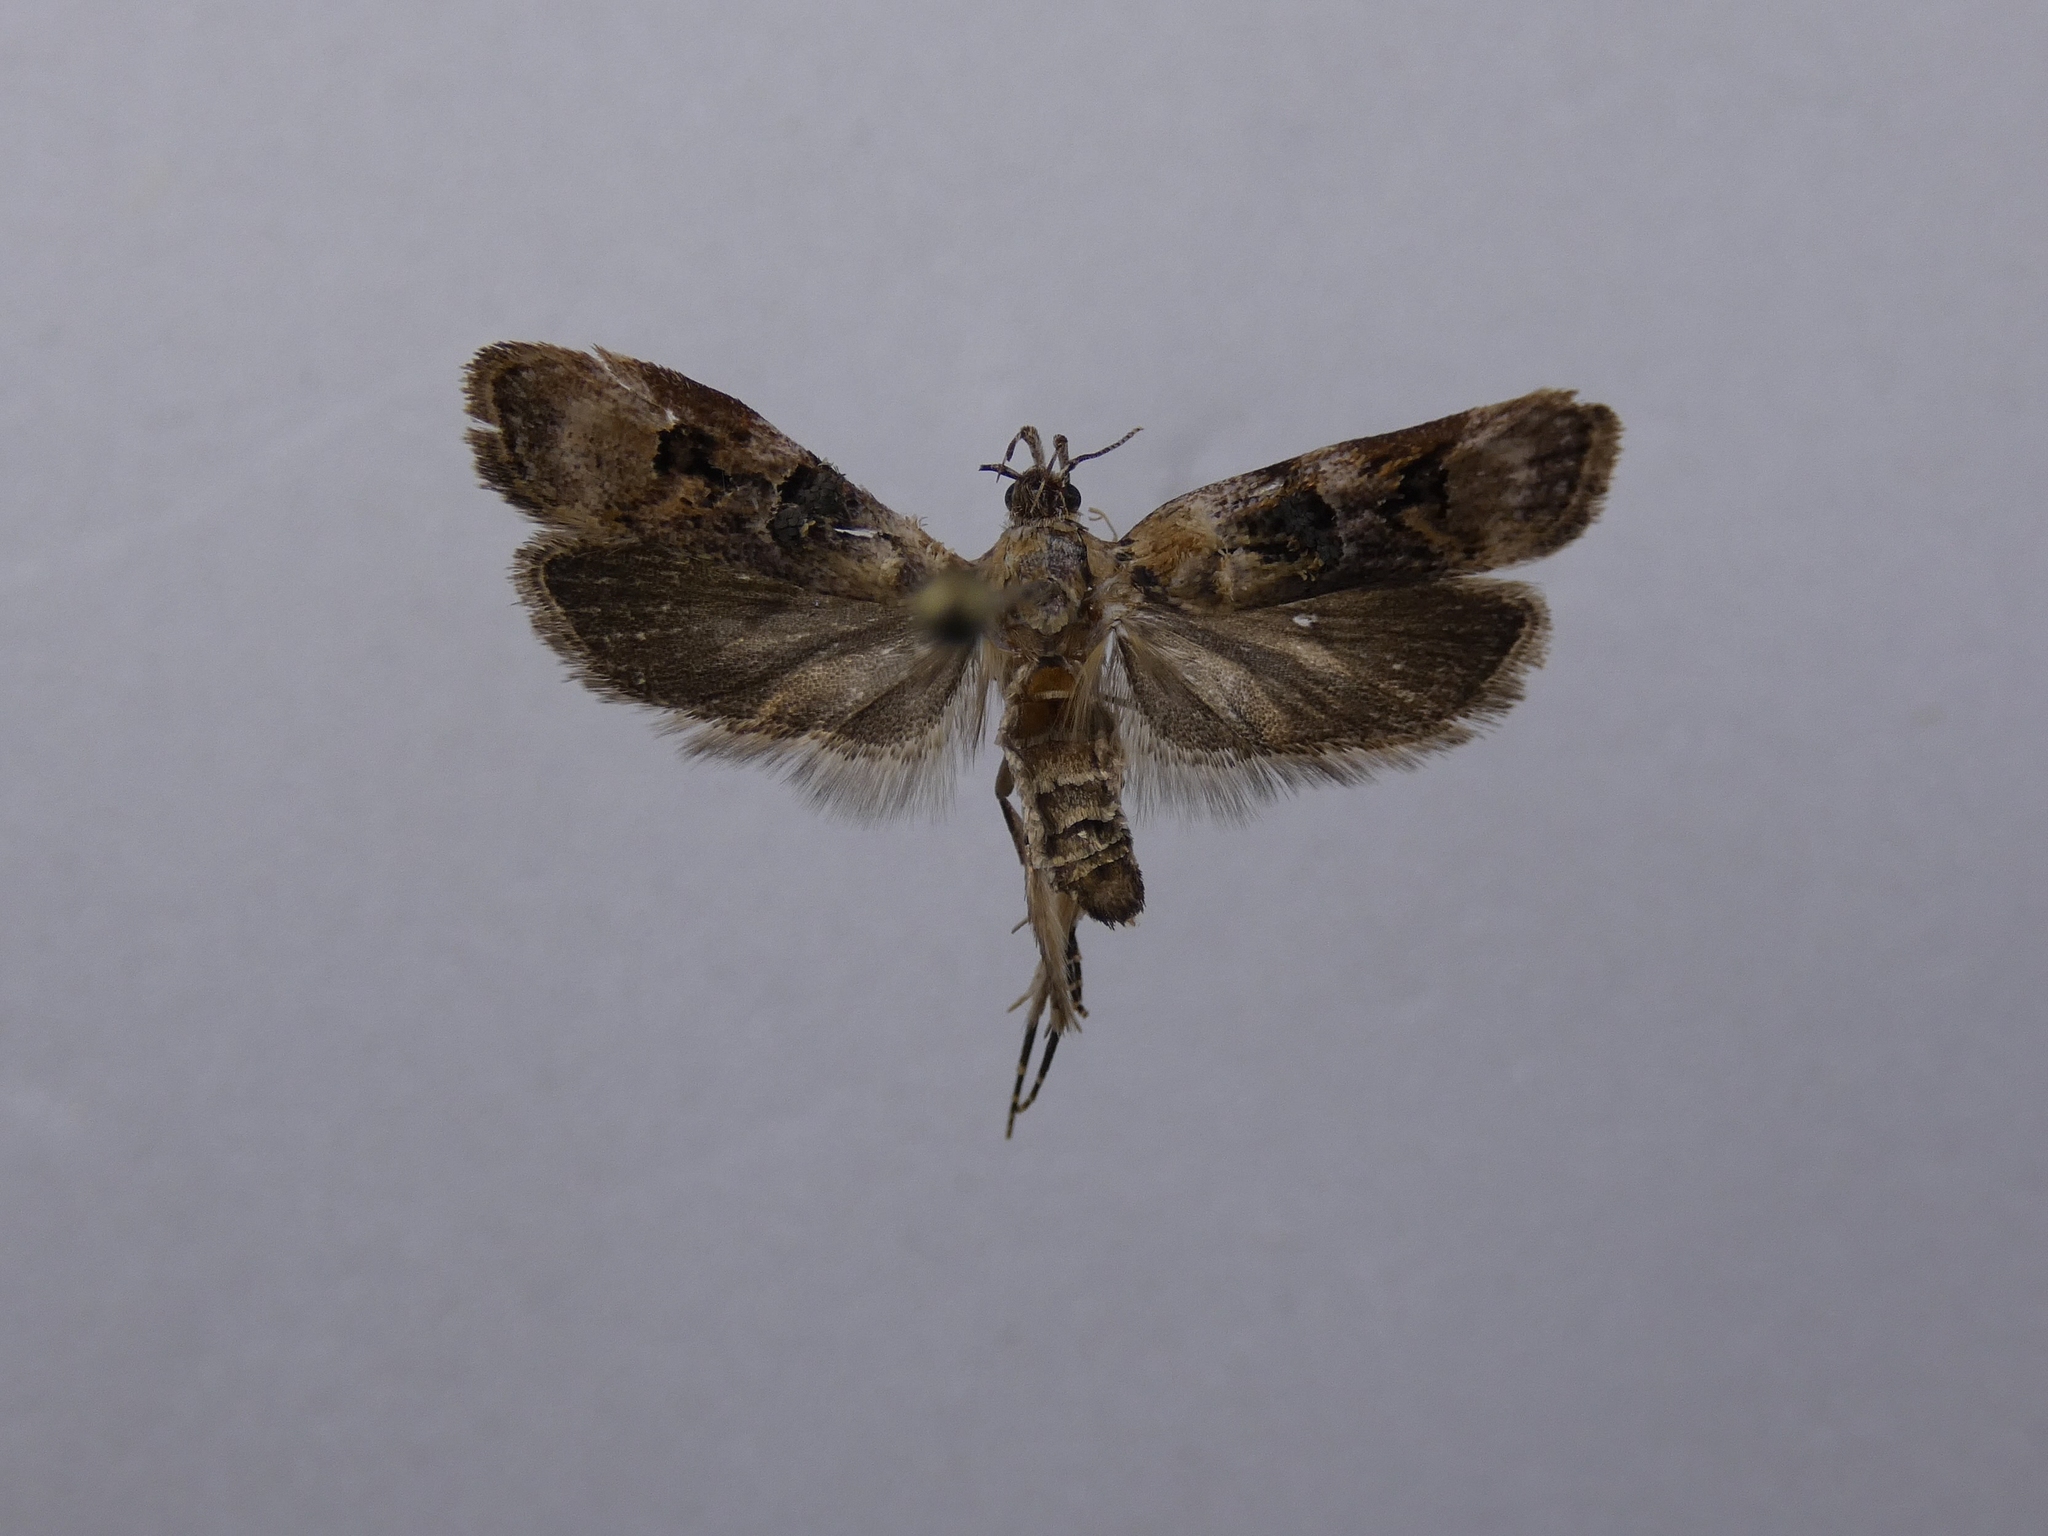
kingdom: Animalia
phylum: Arthropoda
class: Insecta
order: Lepidoptera
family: Oecophoridae
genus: Izatha
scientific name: Izatha metadelta
